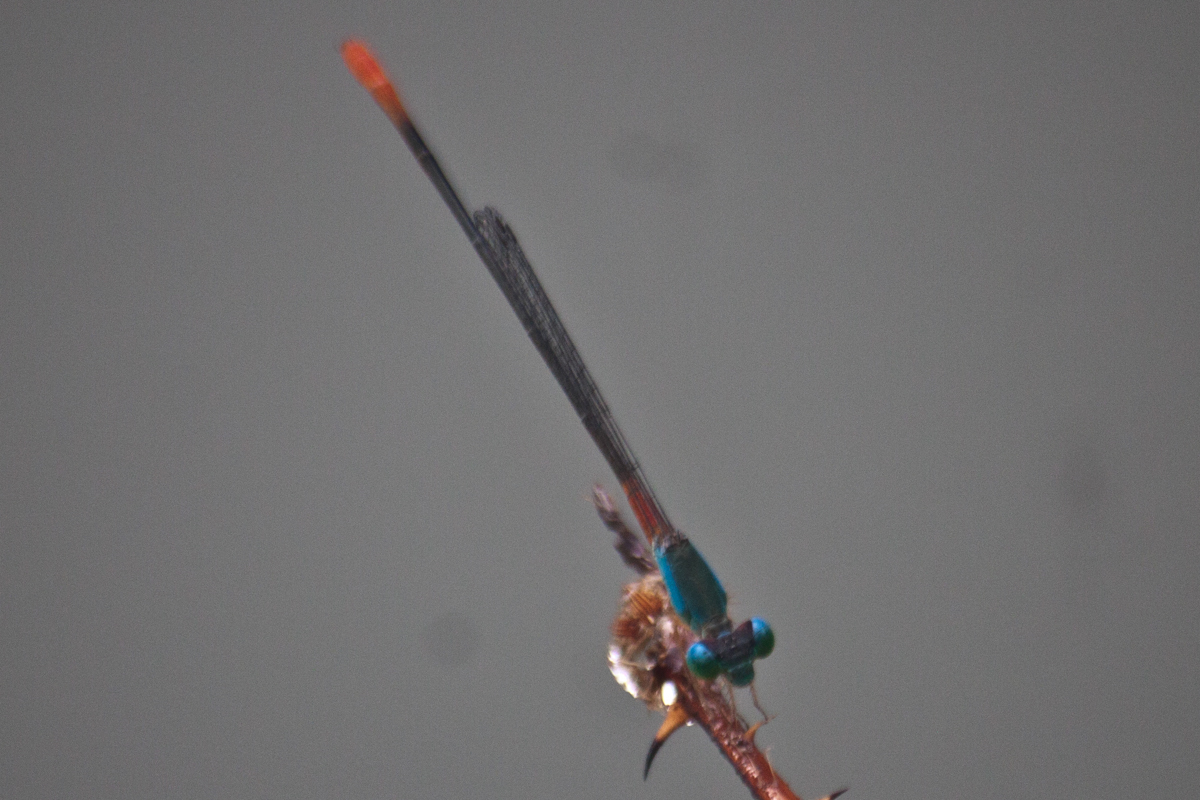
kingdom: Animalia
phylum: Arthropoda
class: Insecta
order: Odonata
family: Coenagrionidae
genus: Ceriagrion
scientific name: Ceriagrion cerinorubellum
